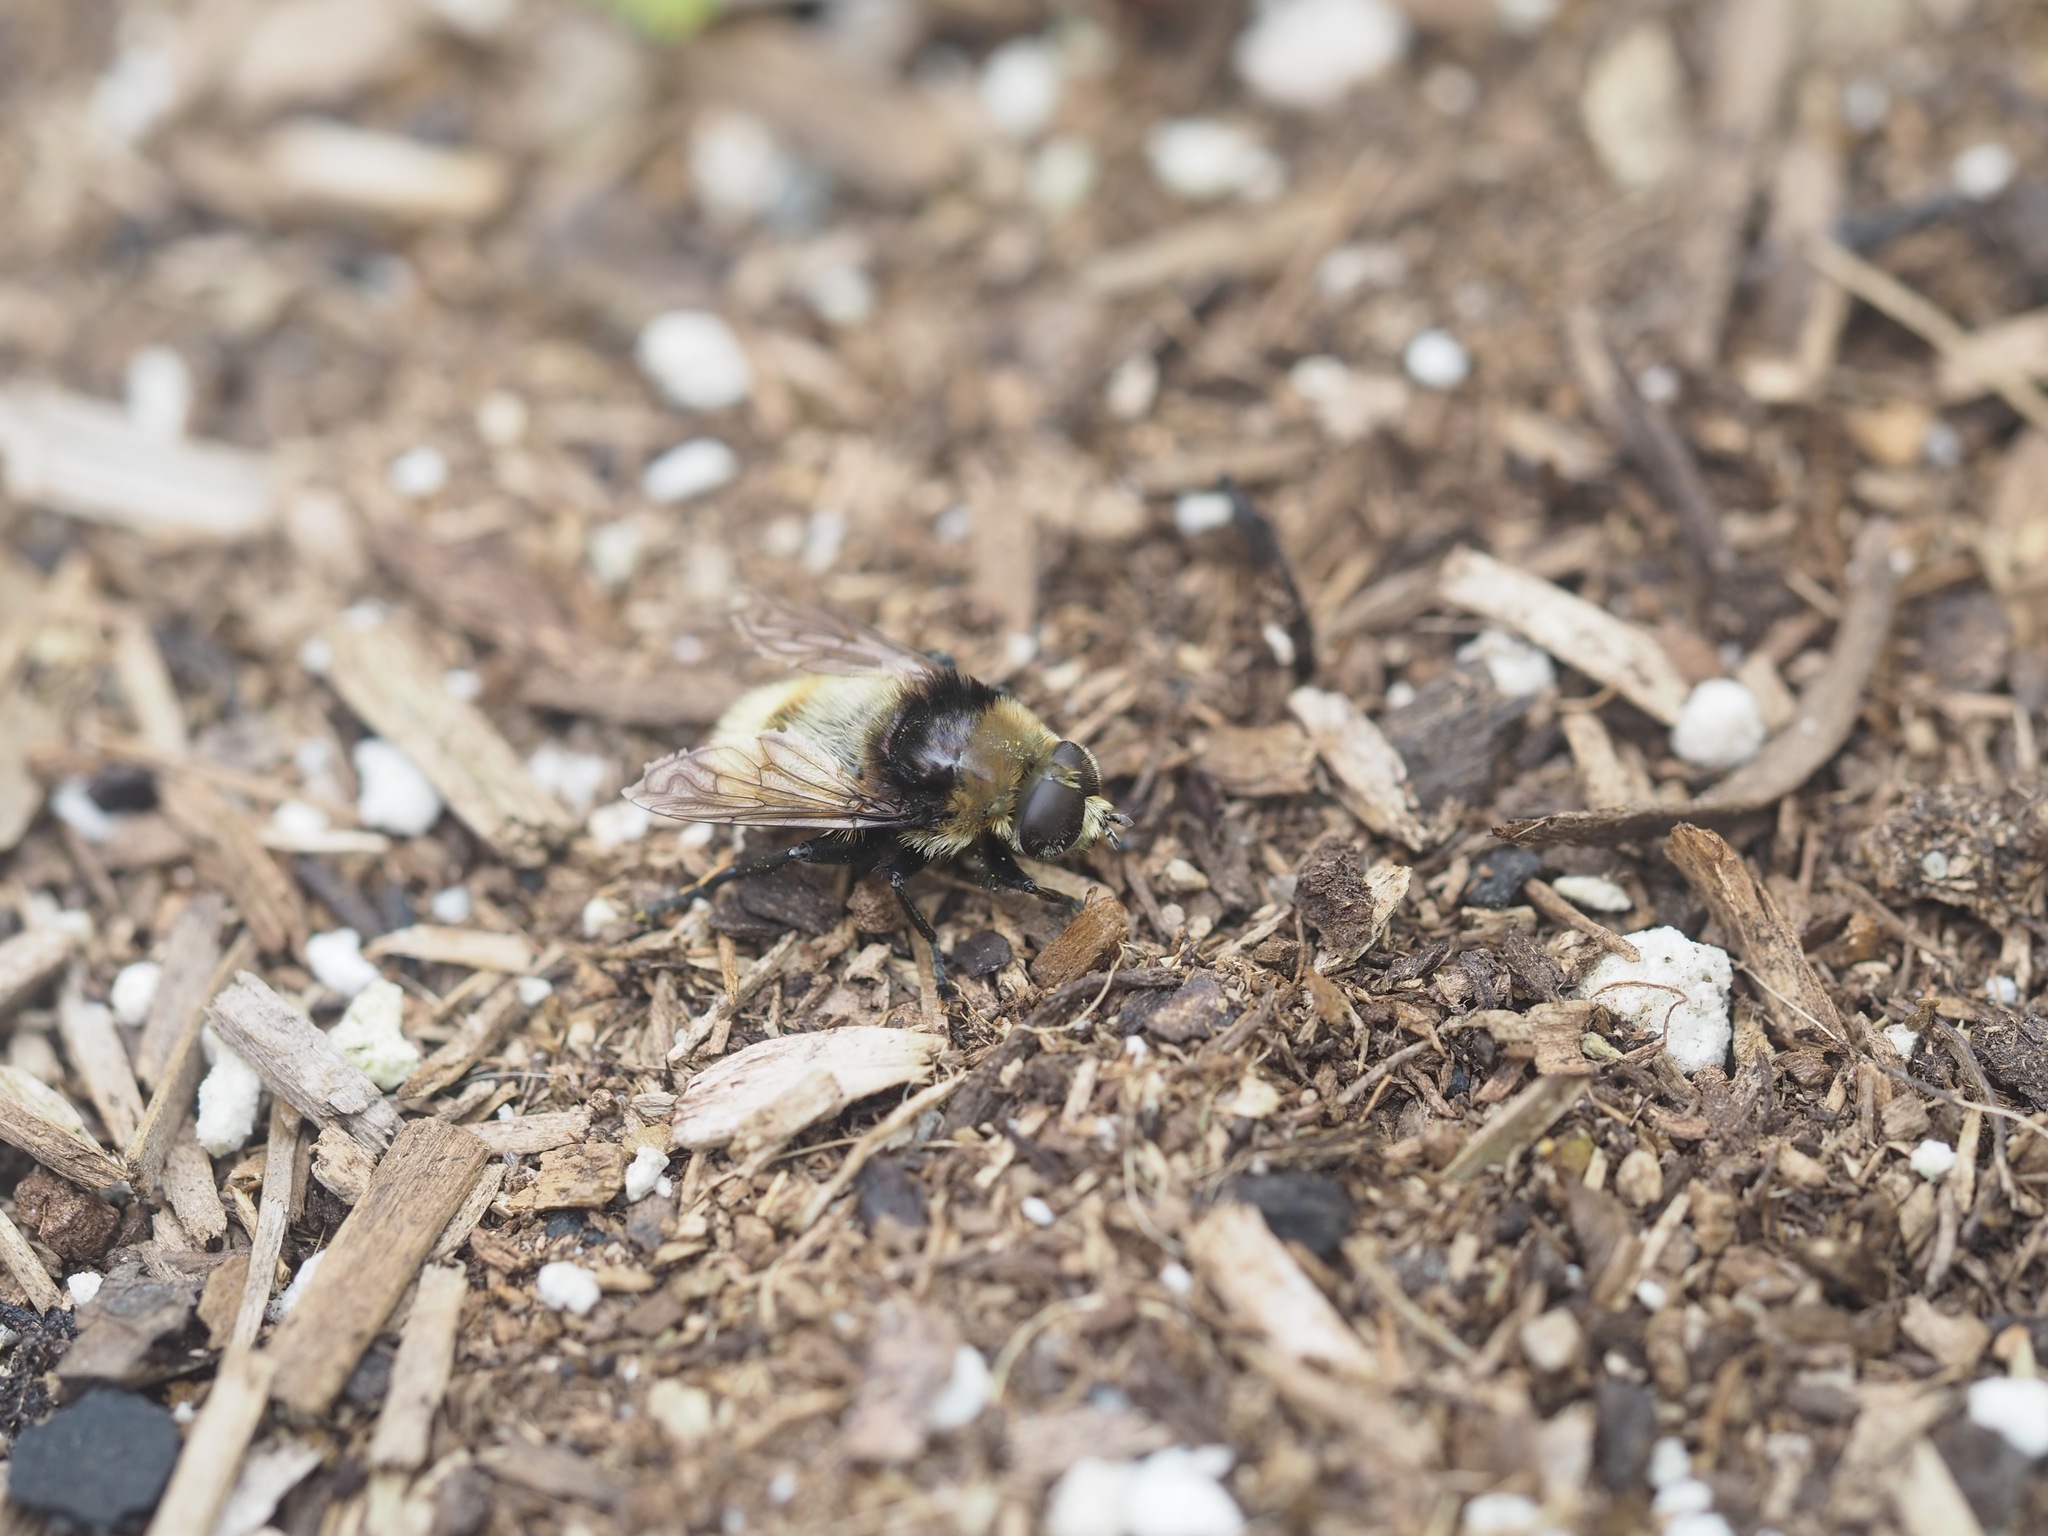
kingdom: Animalia
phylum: Arthropoda
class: Insecta
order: Diptera
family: Syrphidae
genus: Merodon
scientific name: Merodon equestris
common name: Greater bulb-fly
